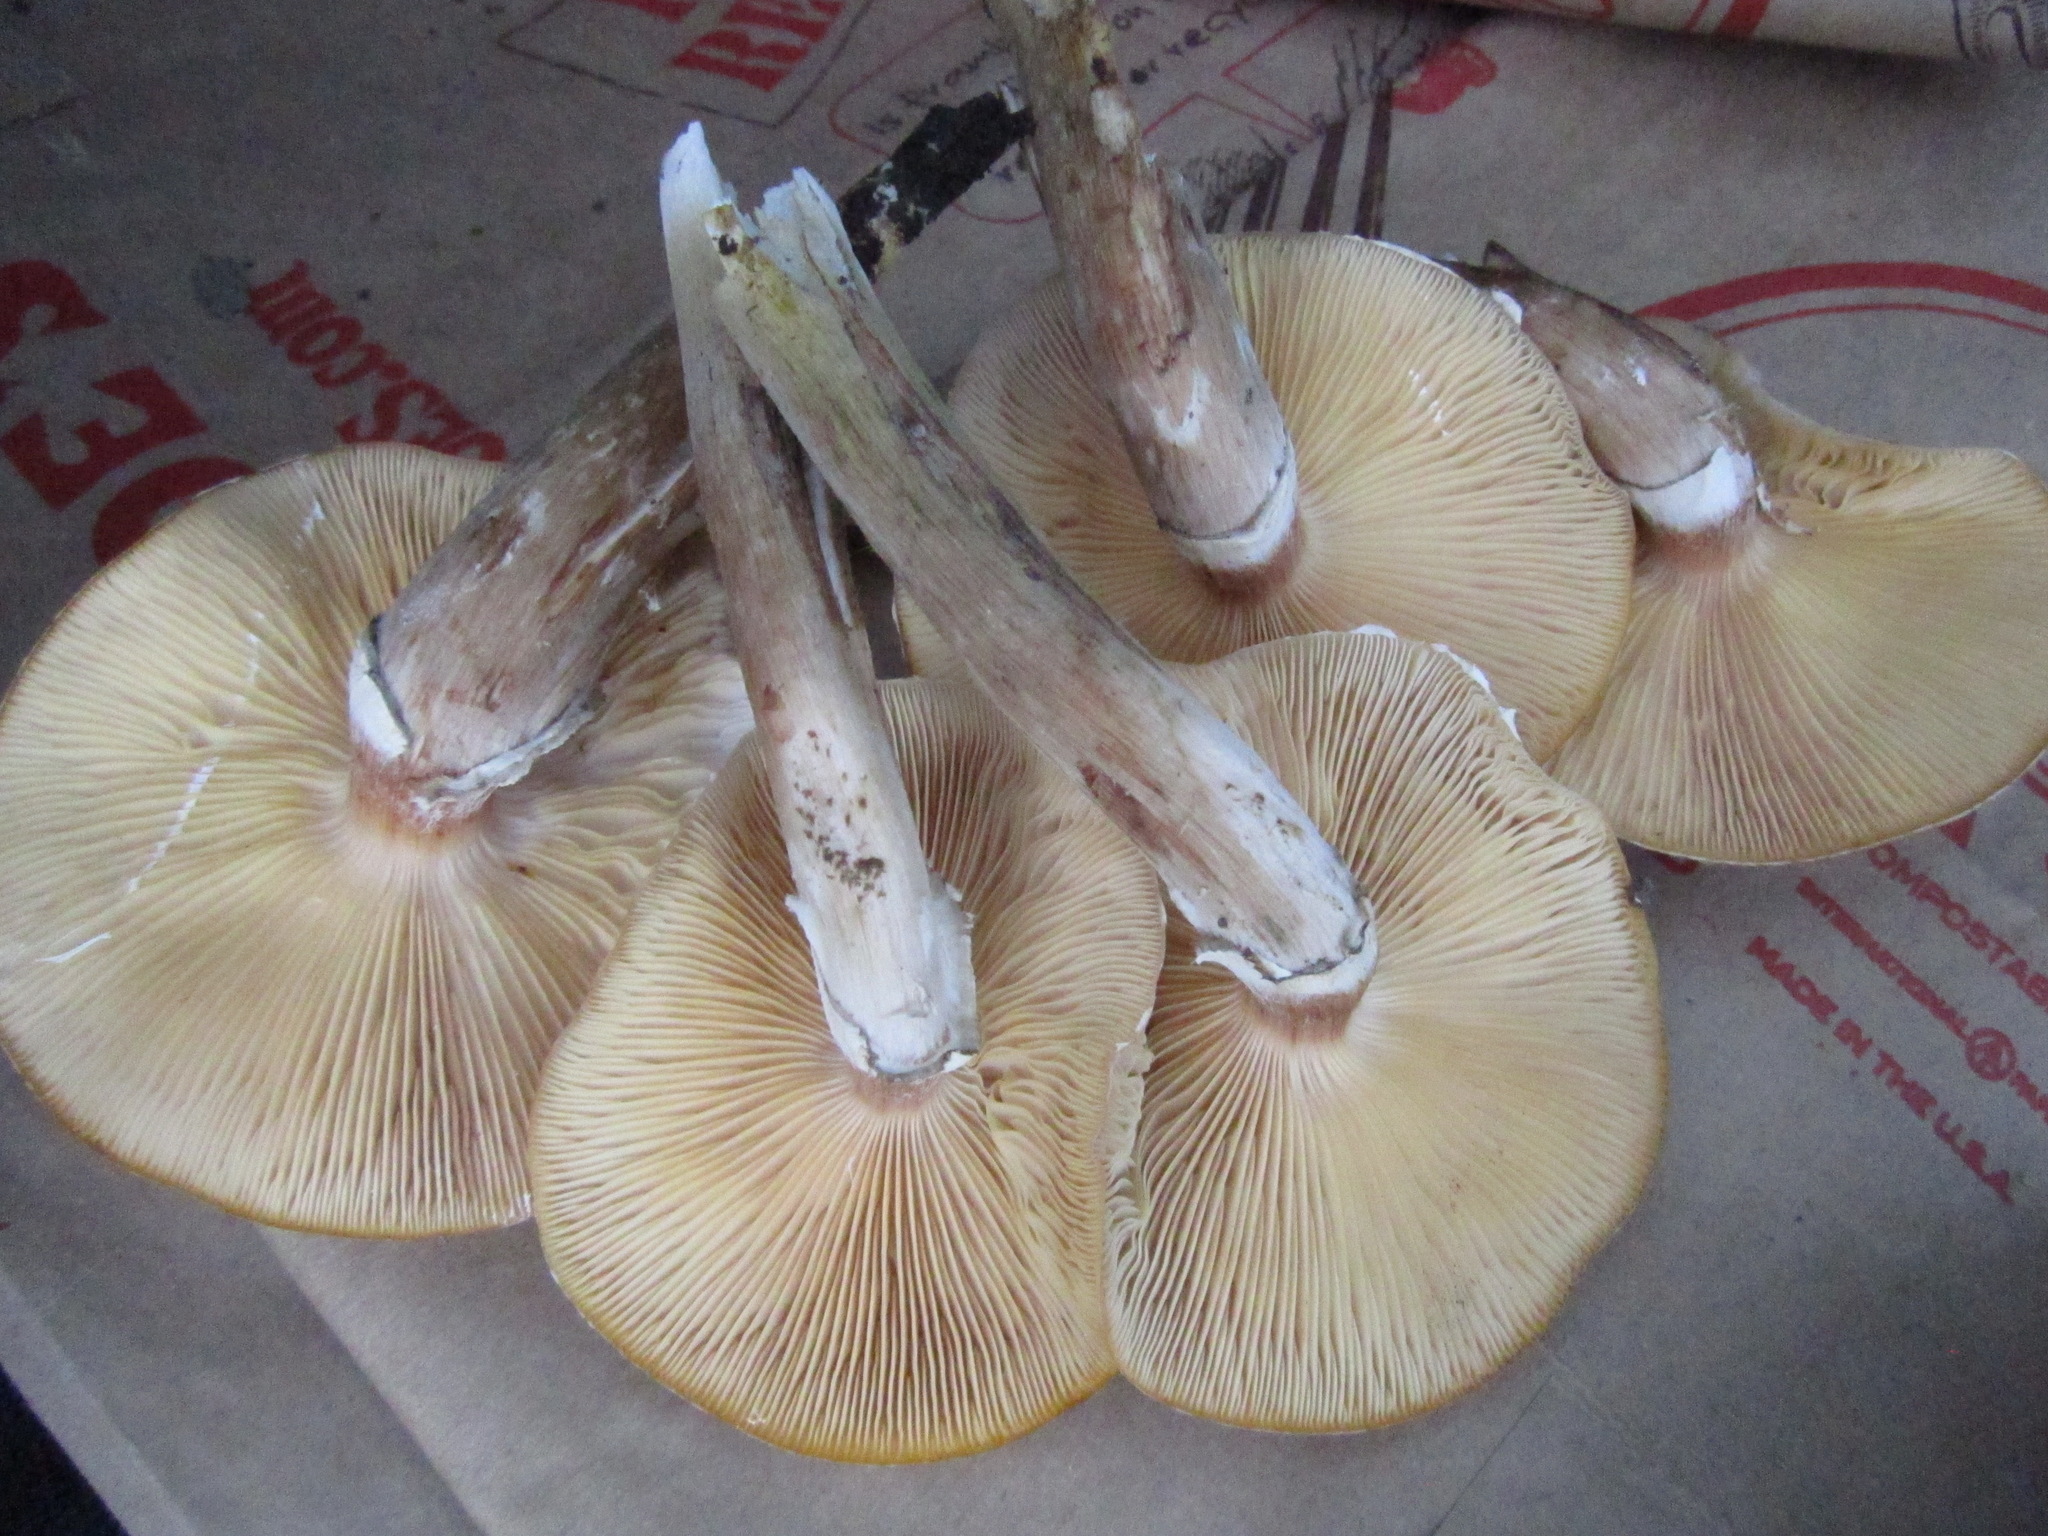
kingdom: Fungi
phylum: Basidiomycota
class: Agaricomycetes
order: Agaricales
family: Physalacriaceae
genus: Armillaria
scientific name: Armillaria mellea
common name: Honey fungus
